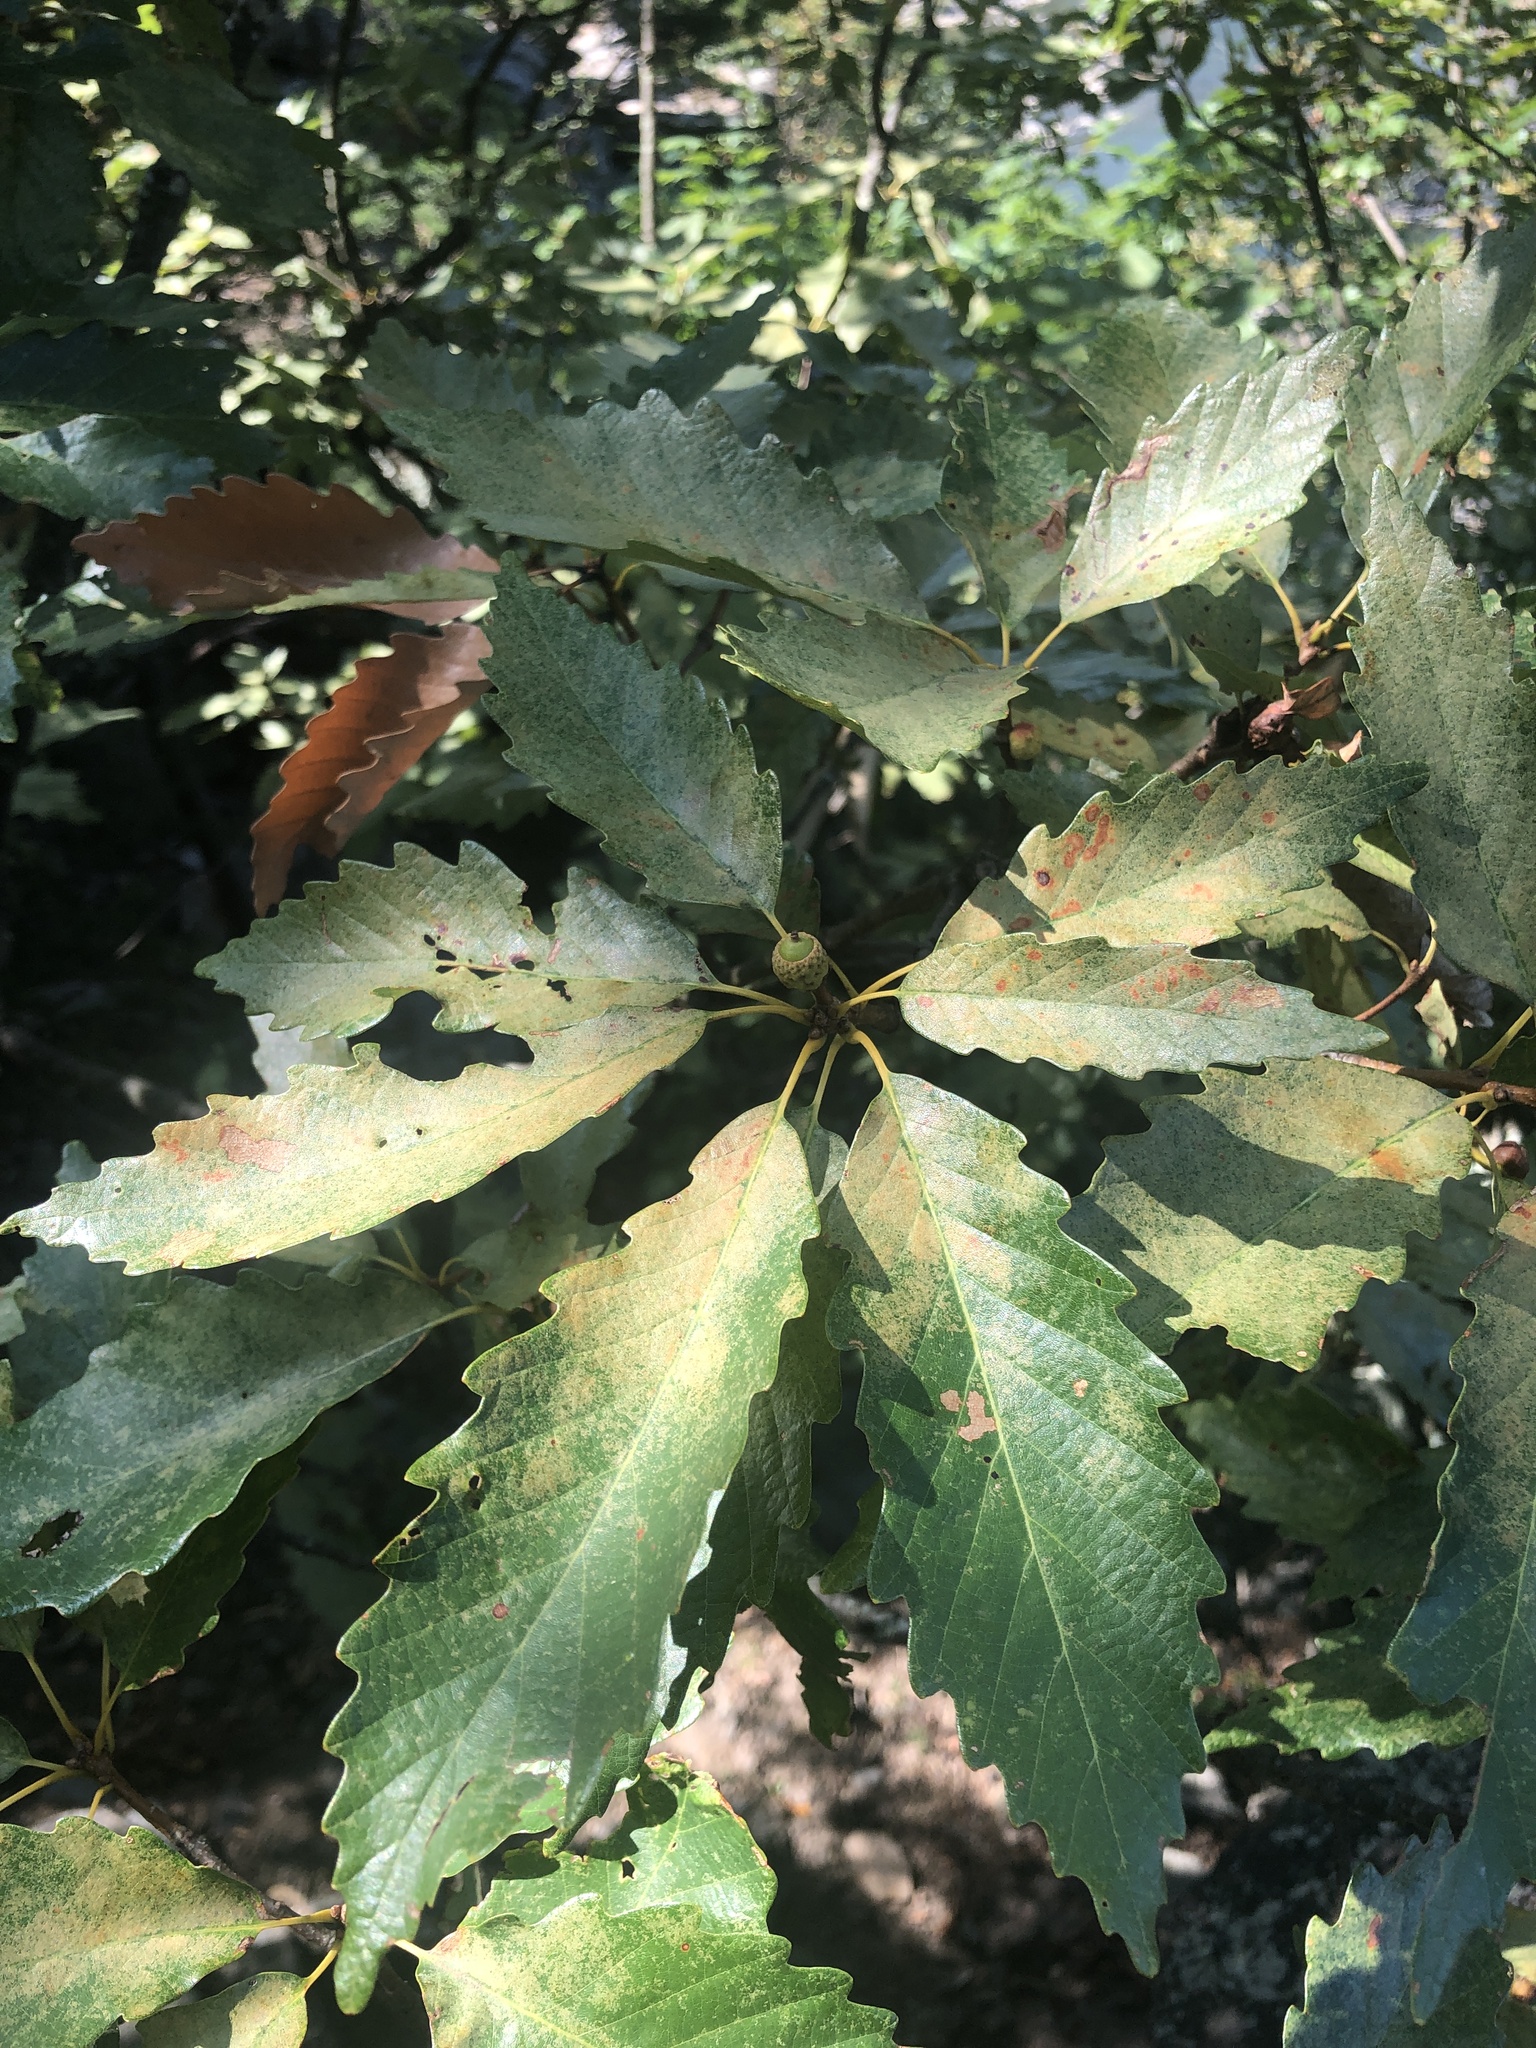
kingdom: Plantae
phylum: Tracheophyta
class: Magnoliopsida
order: Fagales
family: Fagaceae
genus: Quercus
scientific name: Quercus montana
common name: Chestnut oak
